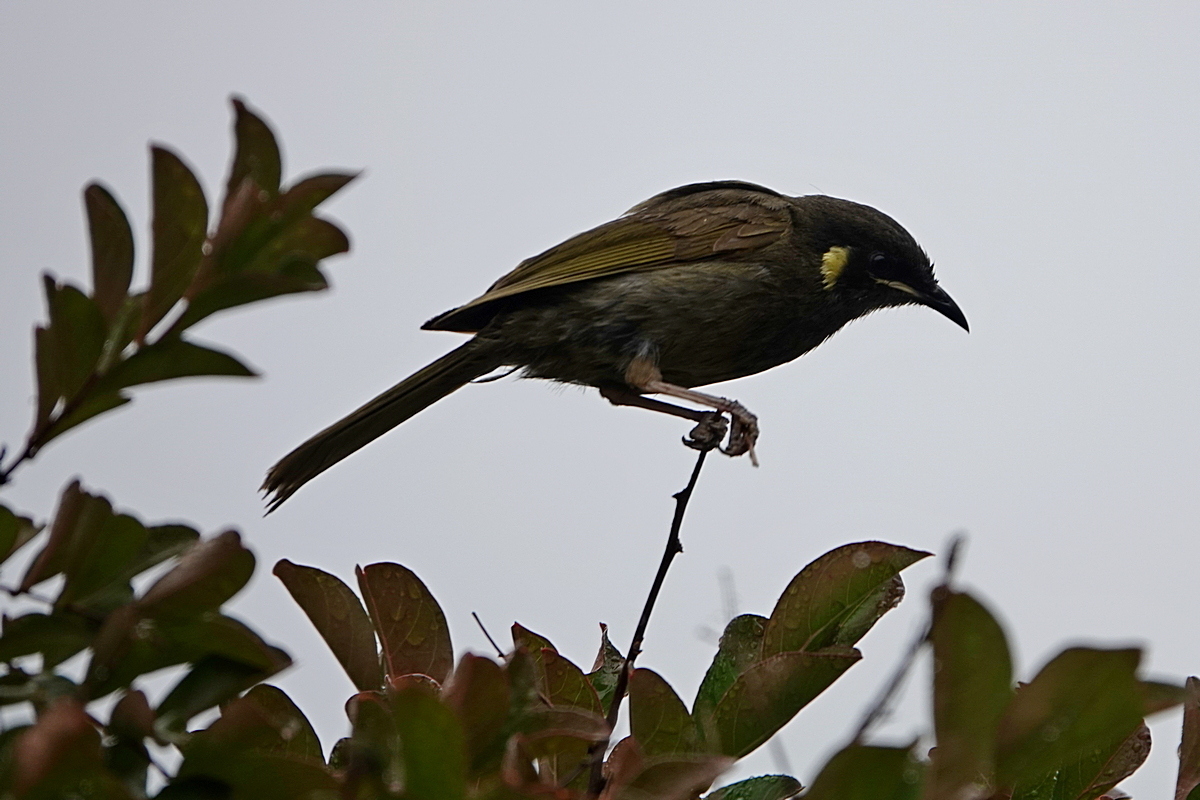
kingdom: Animalia
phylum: Chordata
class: Aves
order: Passeriformes
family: Meliphagidae
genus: Meliphaga
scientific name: Meliphaga lewinii
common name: Lewin's honeyeater
